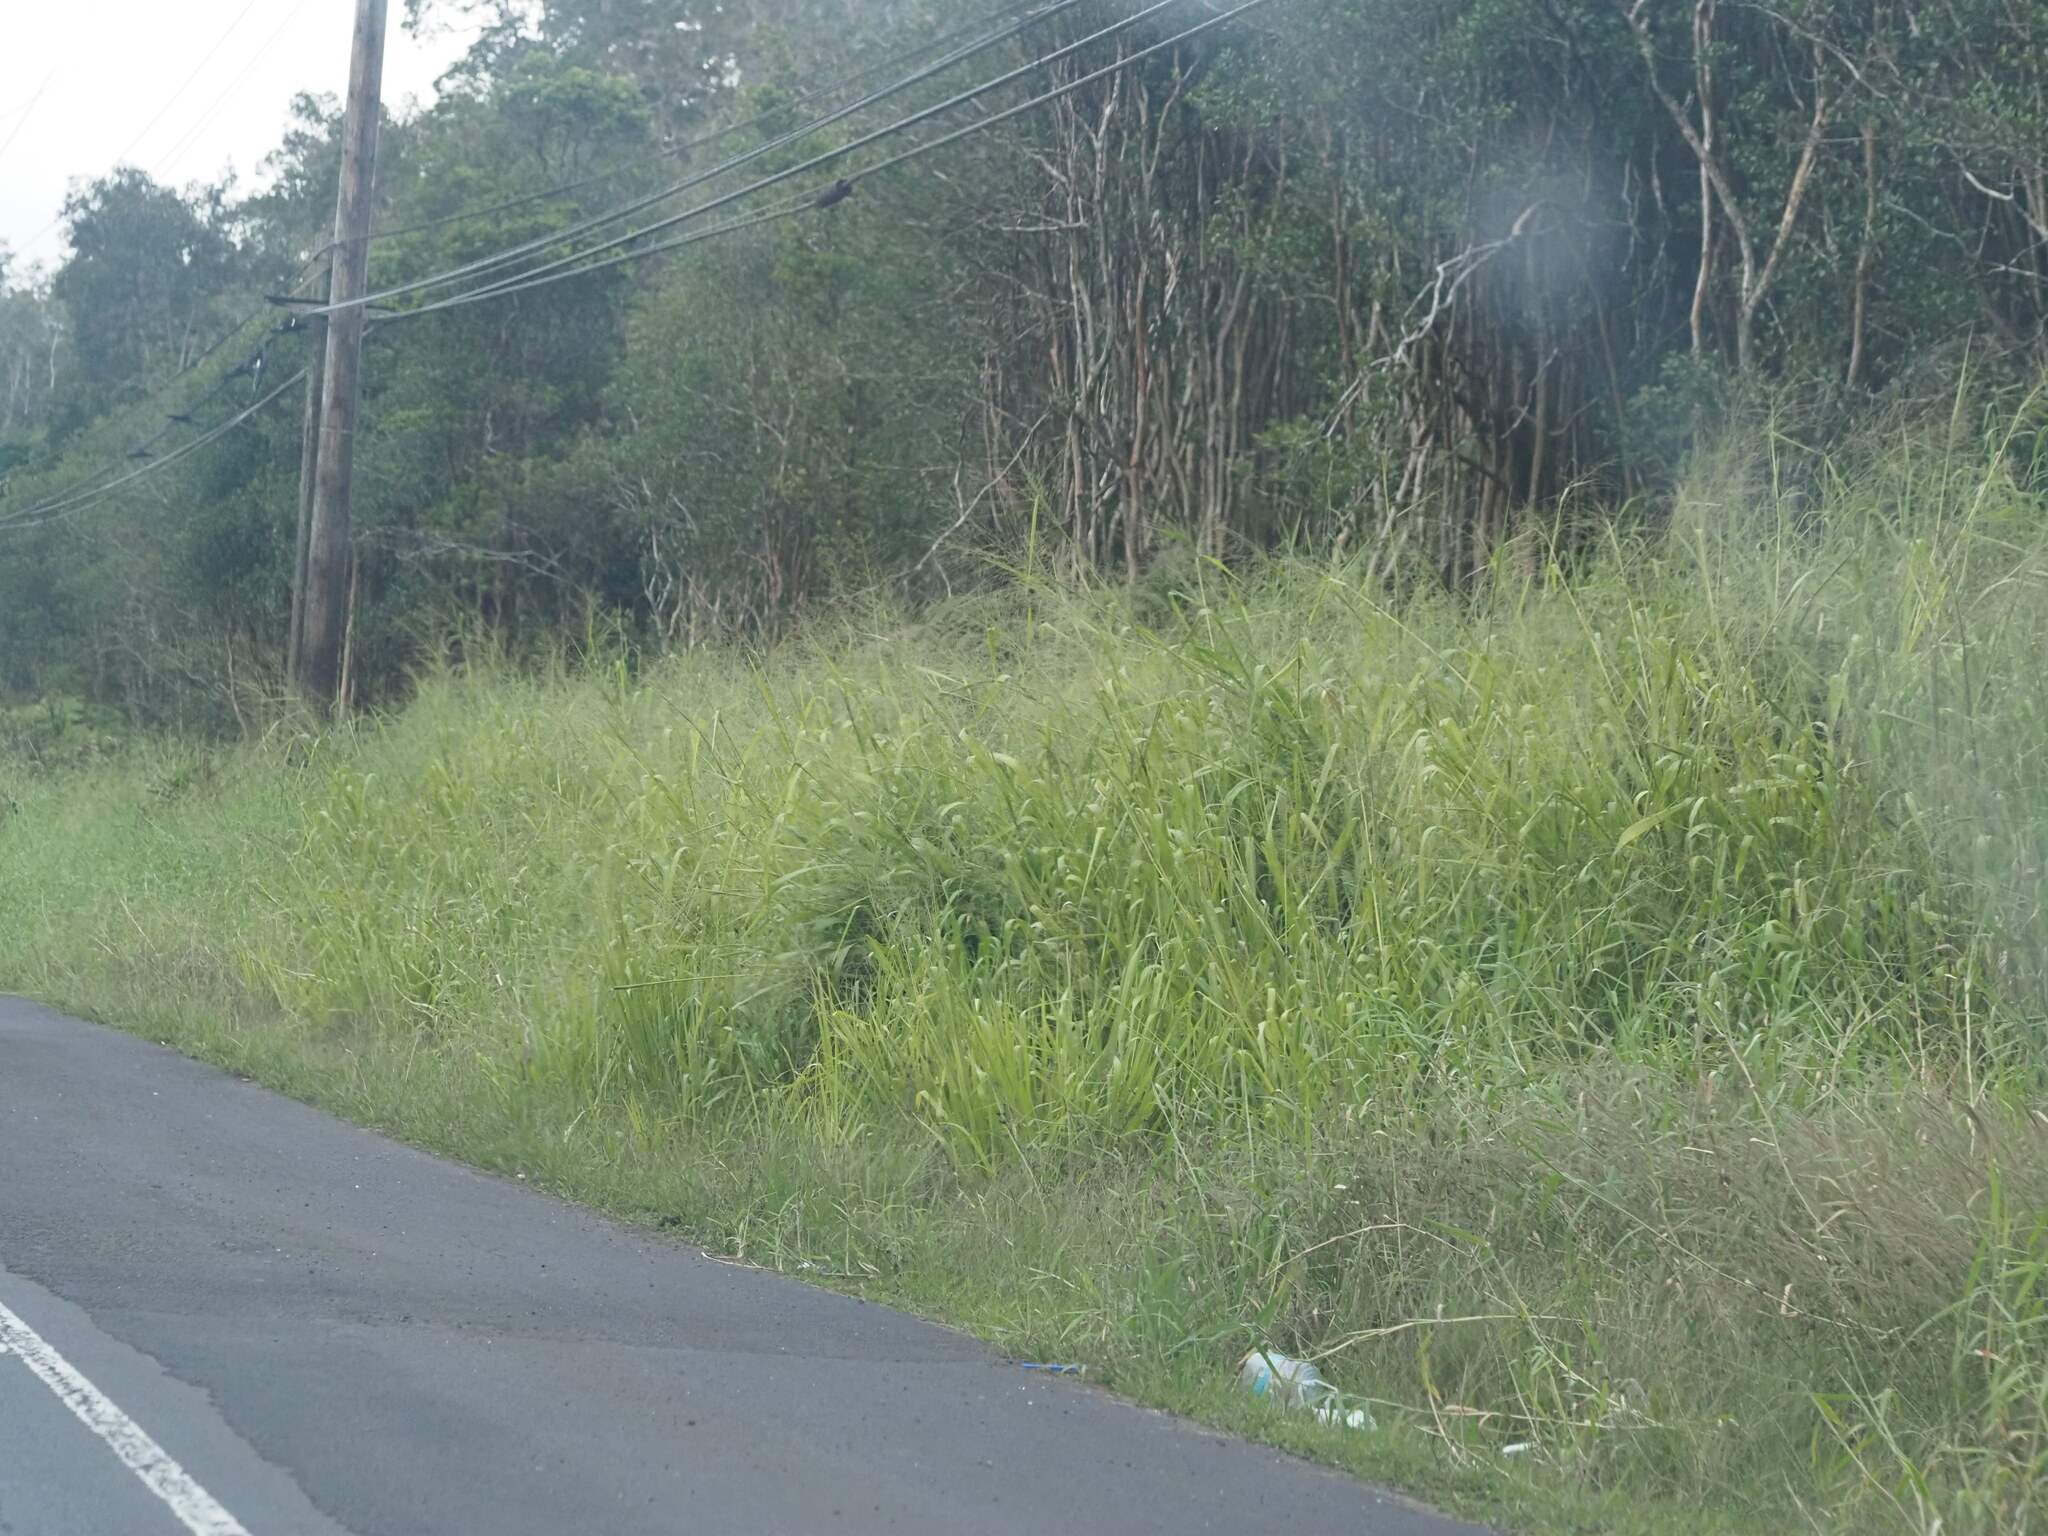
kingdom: Plantae
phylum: Tracheophyta
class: Liliopsida
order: Poales
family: Poaceae
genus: Megathyrsus
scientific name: Megathyrsus maximus
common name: Guineagrass
